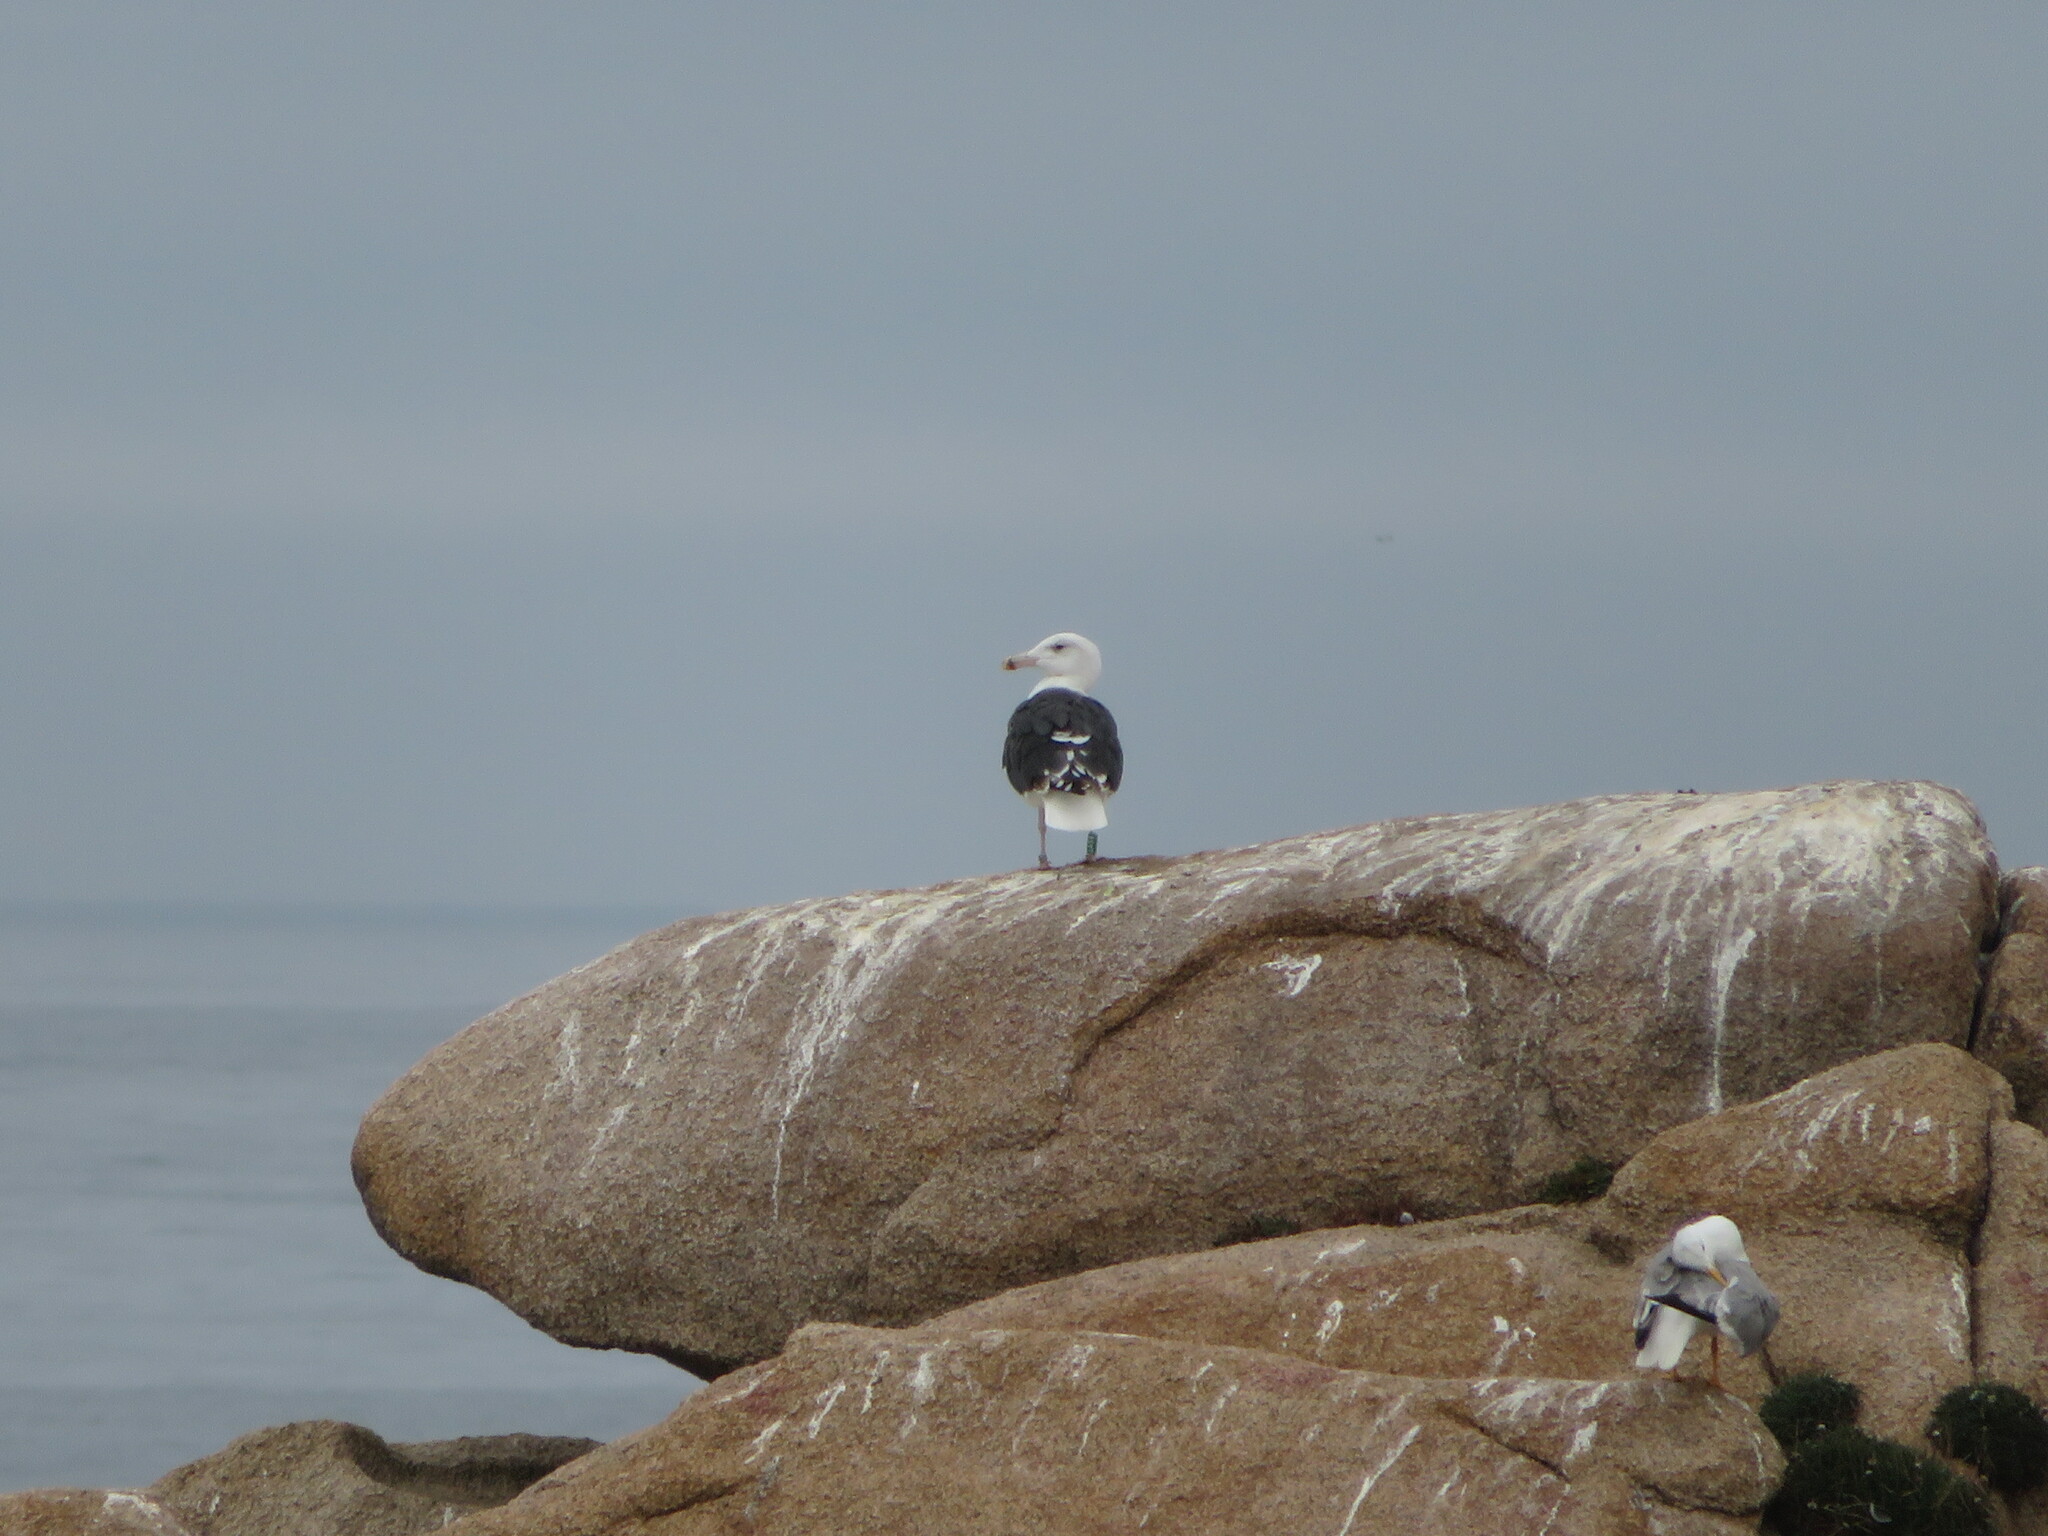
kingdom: Animalia
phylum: Chordata
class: Aves
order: Charadriiformes
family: Laridae
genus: Larus
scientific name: Larus marinus
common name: Great black-backed gull
